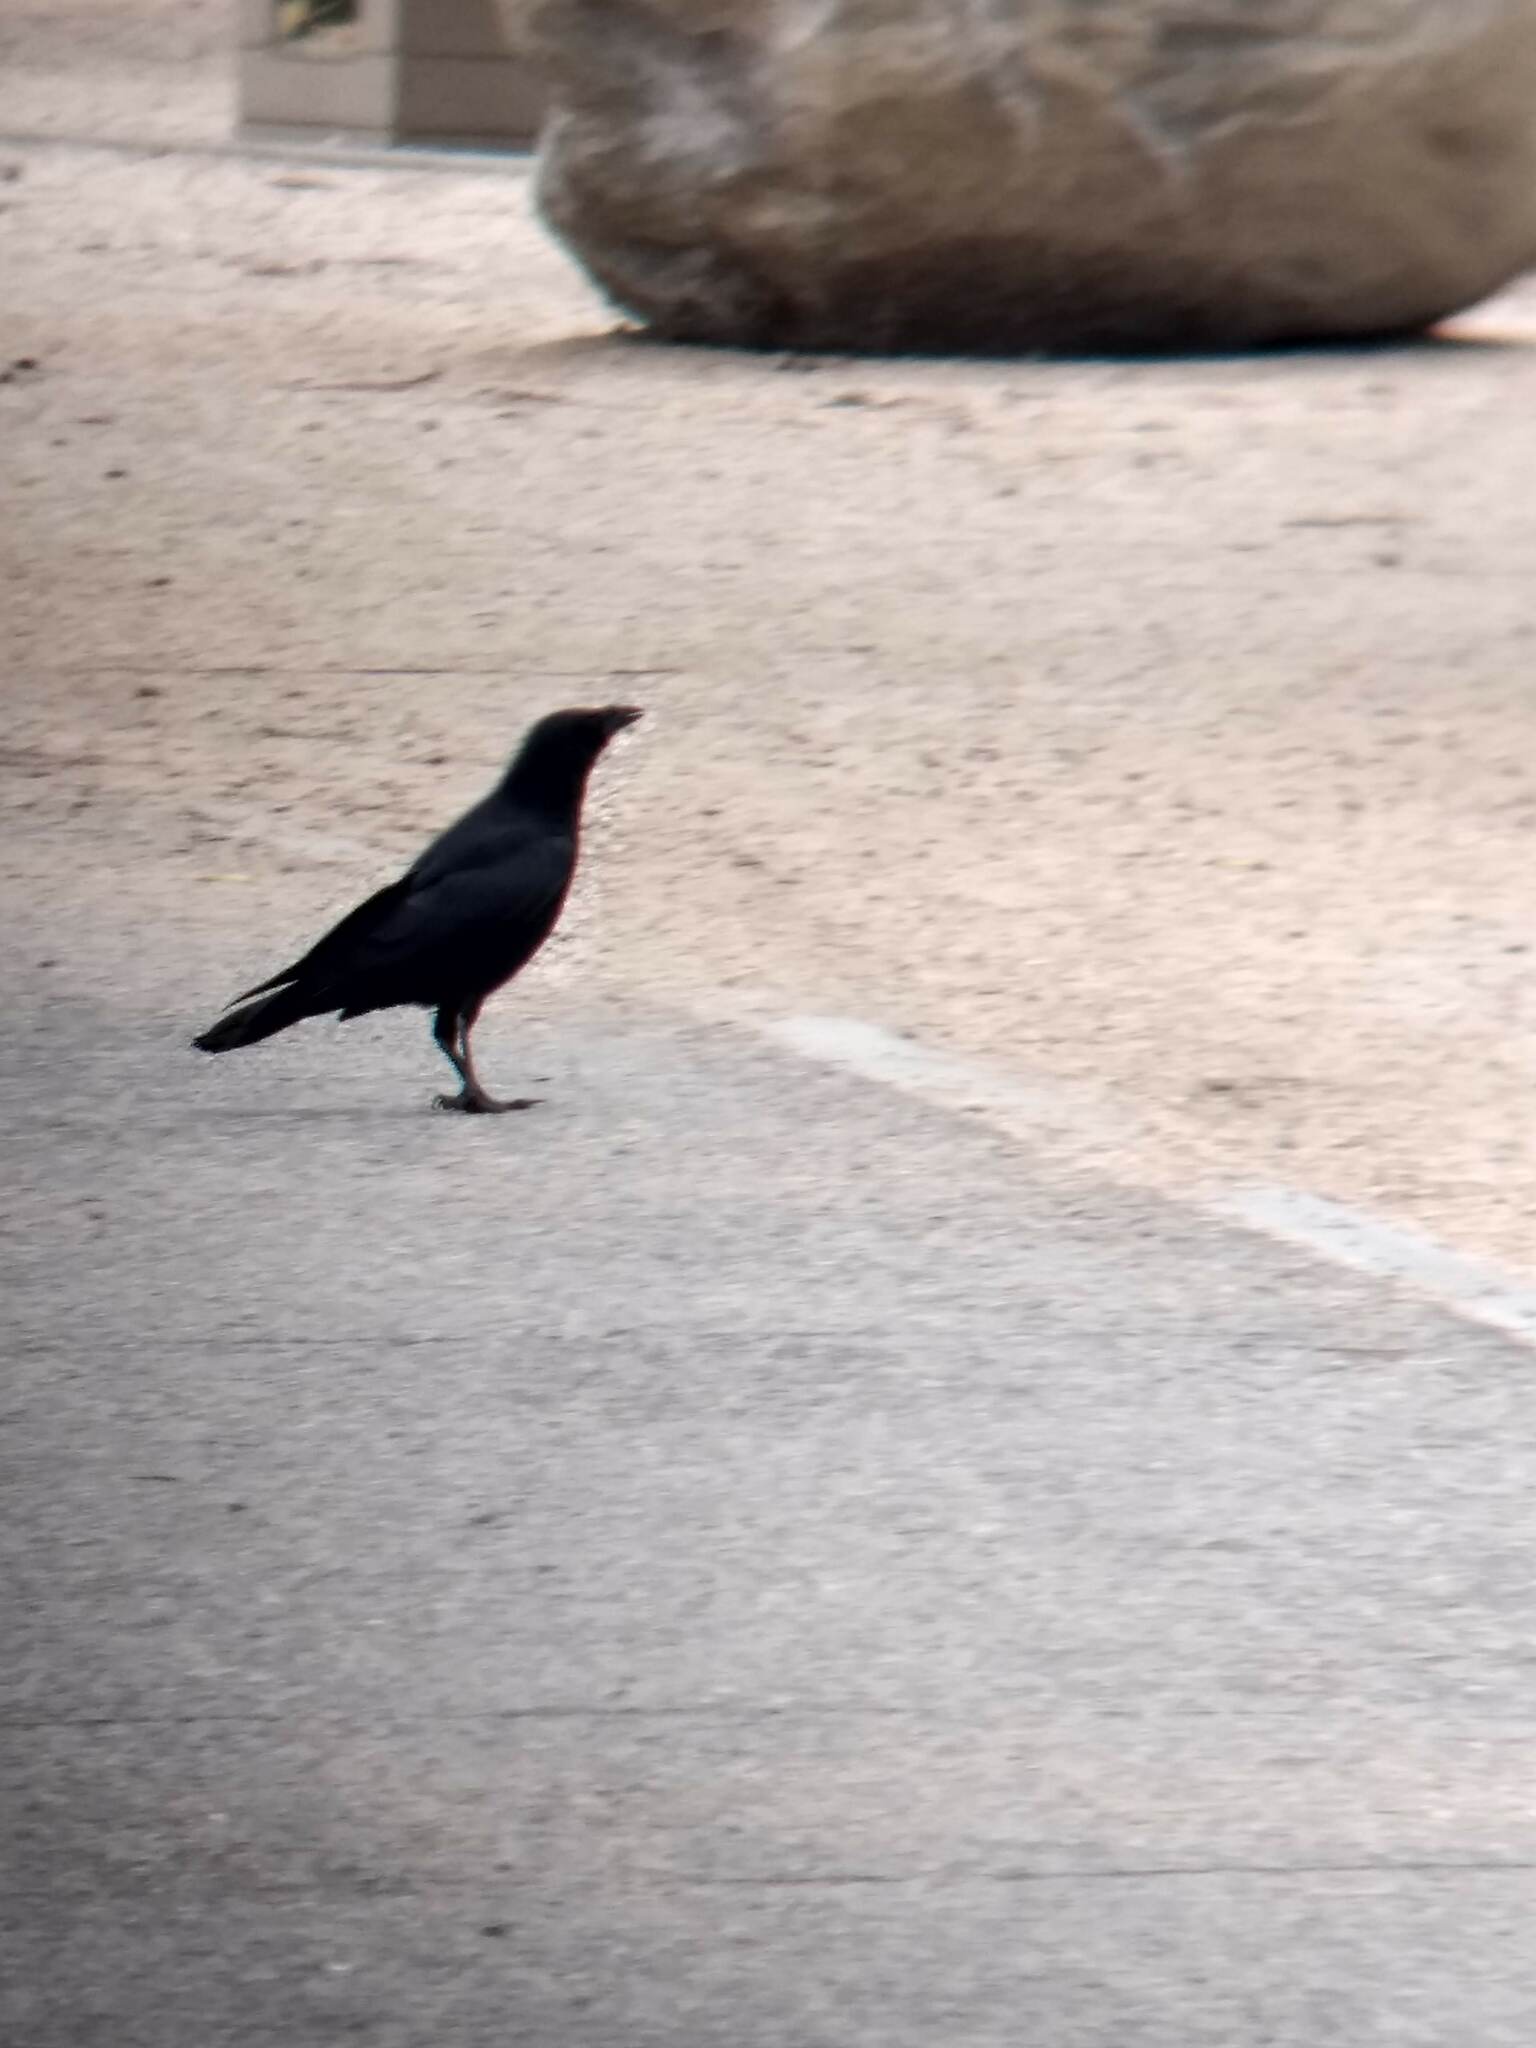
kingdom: Animalia
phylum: Chordata
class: Aves
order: Passeriformes
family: Corvidae
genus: Corvus
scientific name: Corvus brachyrhynchos
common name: American crow
